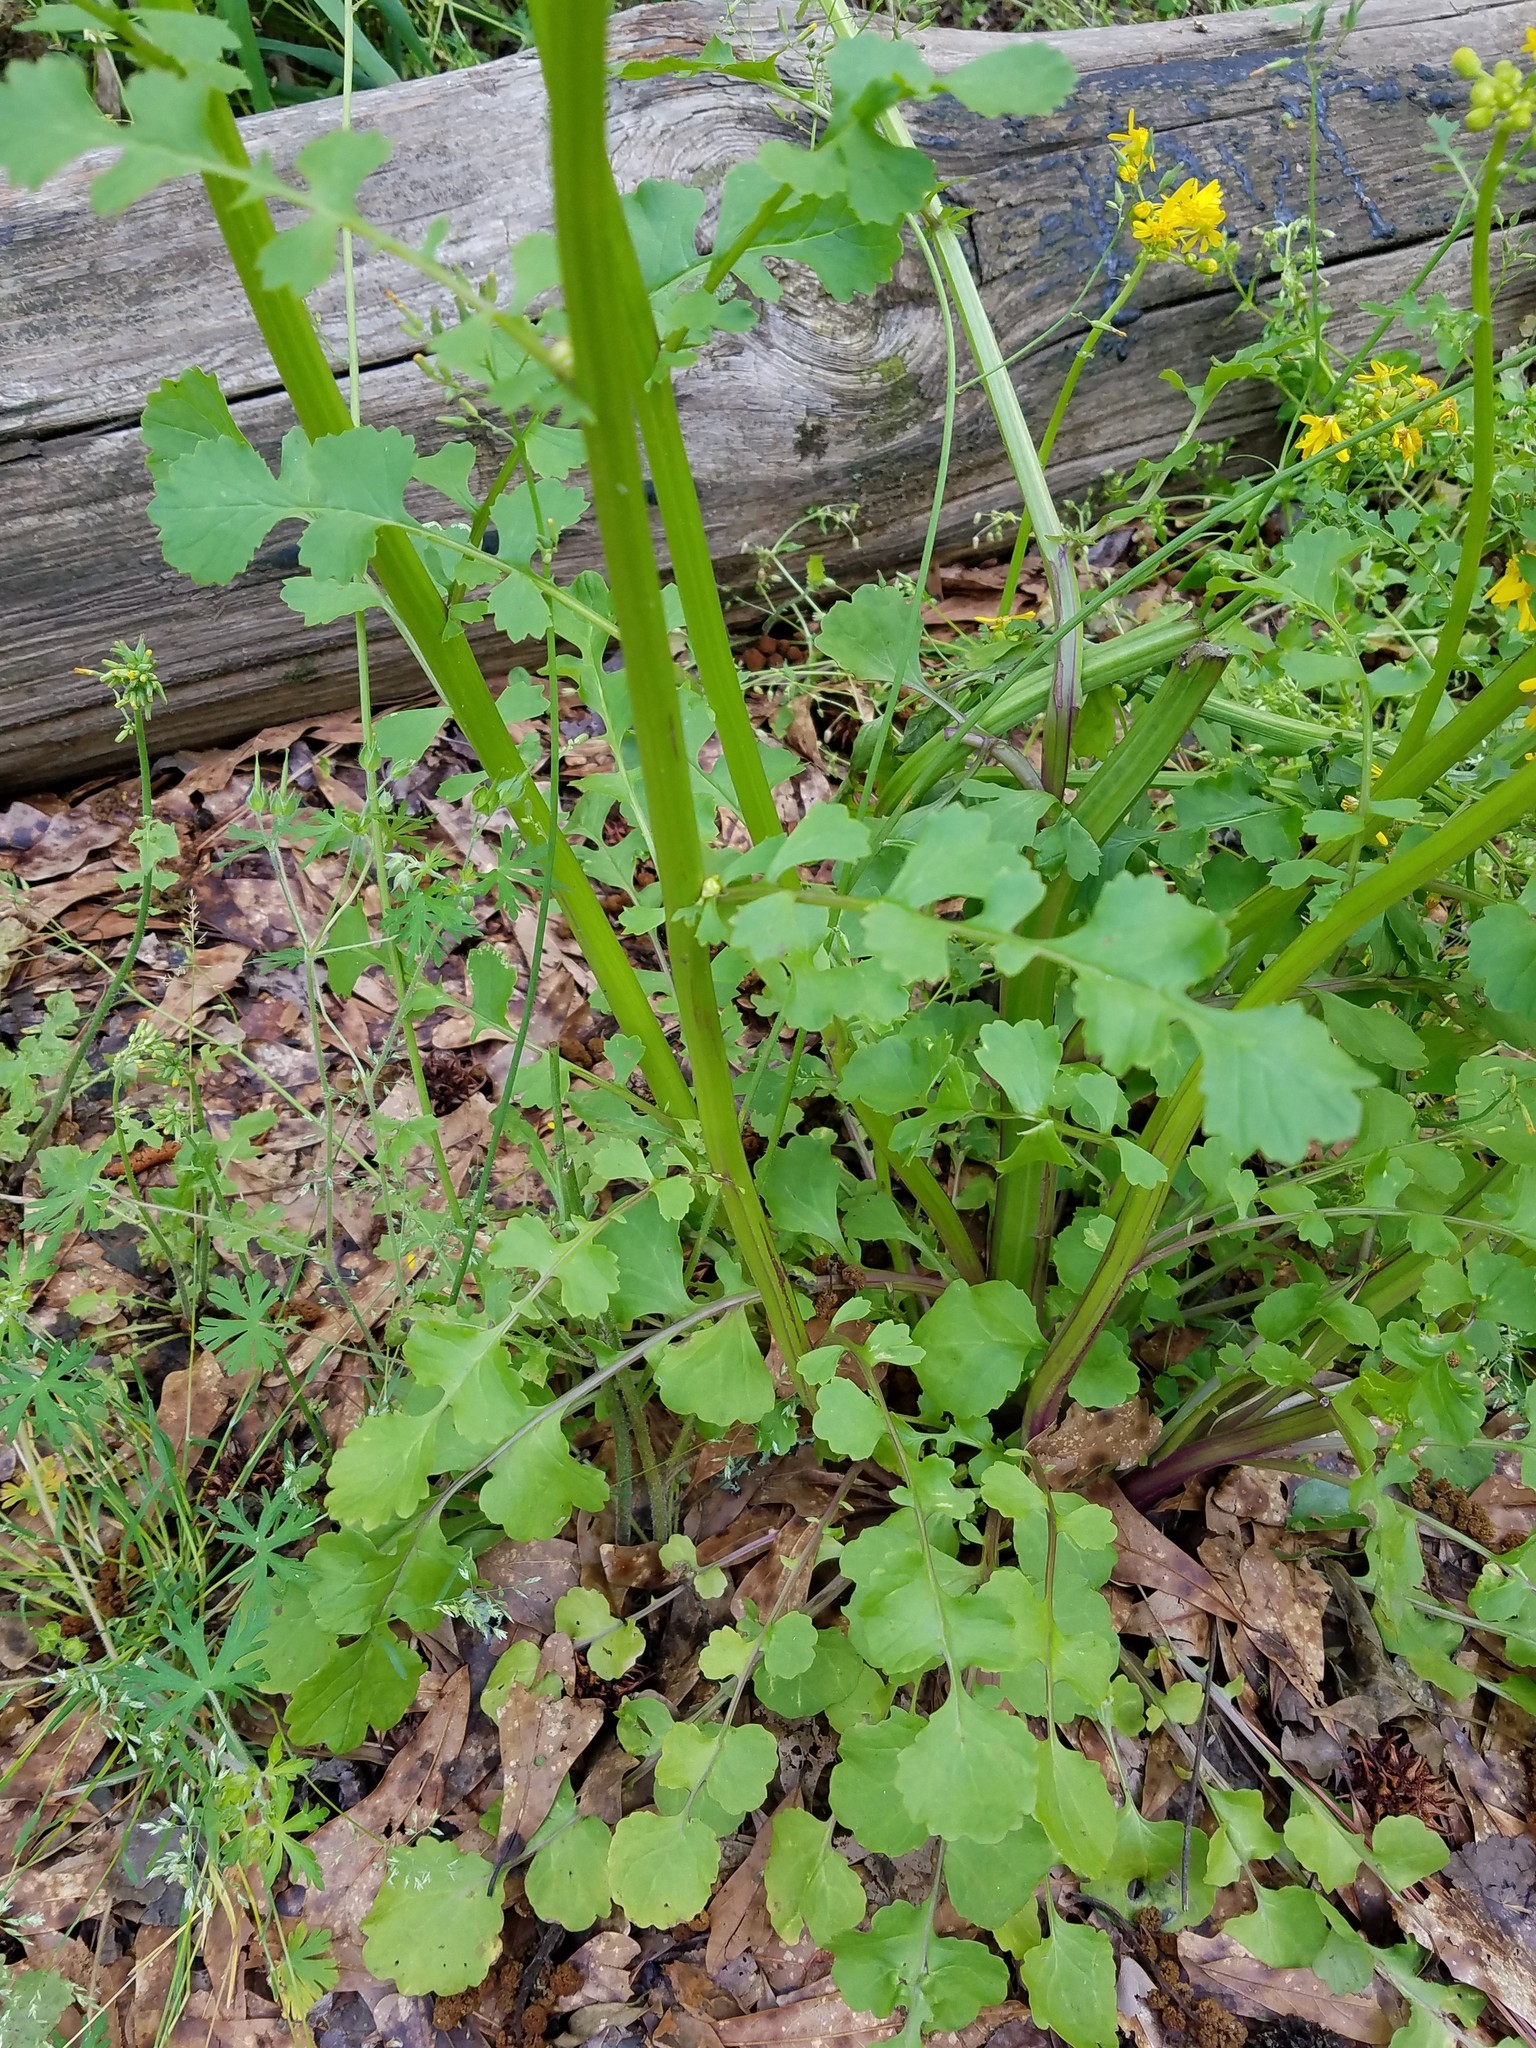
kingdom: Plantae
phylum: Tracheophyta
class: Magnoliopsida
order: Asterales
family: Asteraceae
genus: Packera
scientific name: Packera glabella
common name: Butterweed
